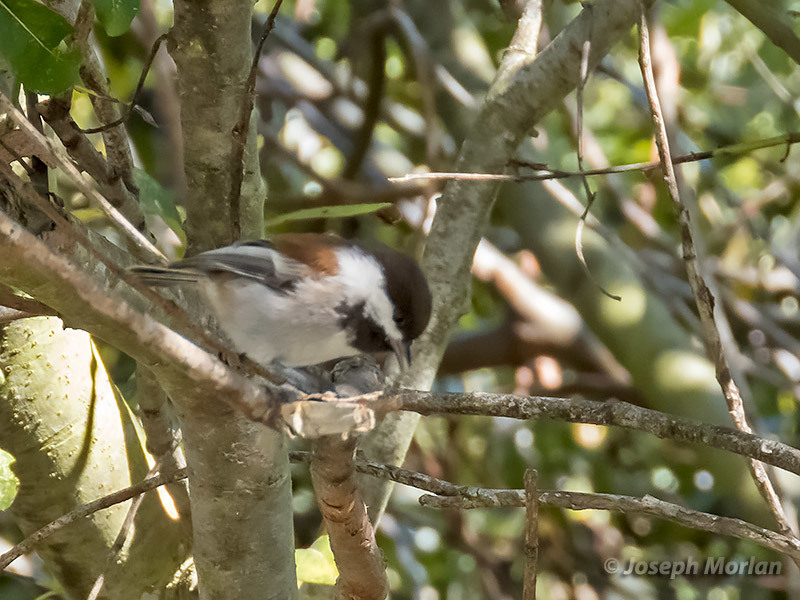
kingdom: Animalia
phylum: Chordata
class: Aves
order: Passeriformes
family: Paridae
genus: Poecile
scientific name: Poecile rufescens
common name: Chestnut-backed chickadee
